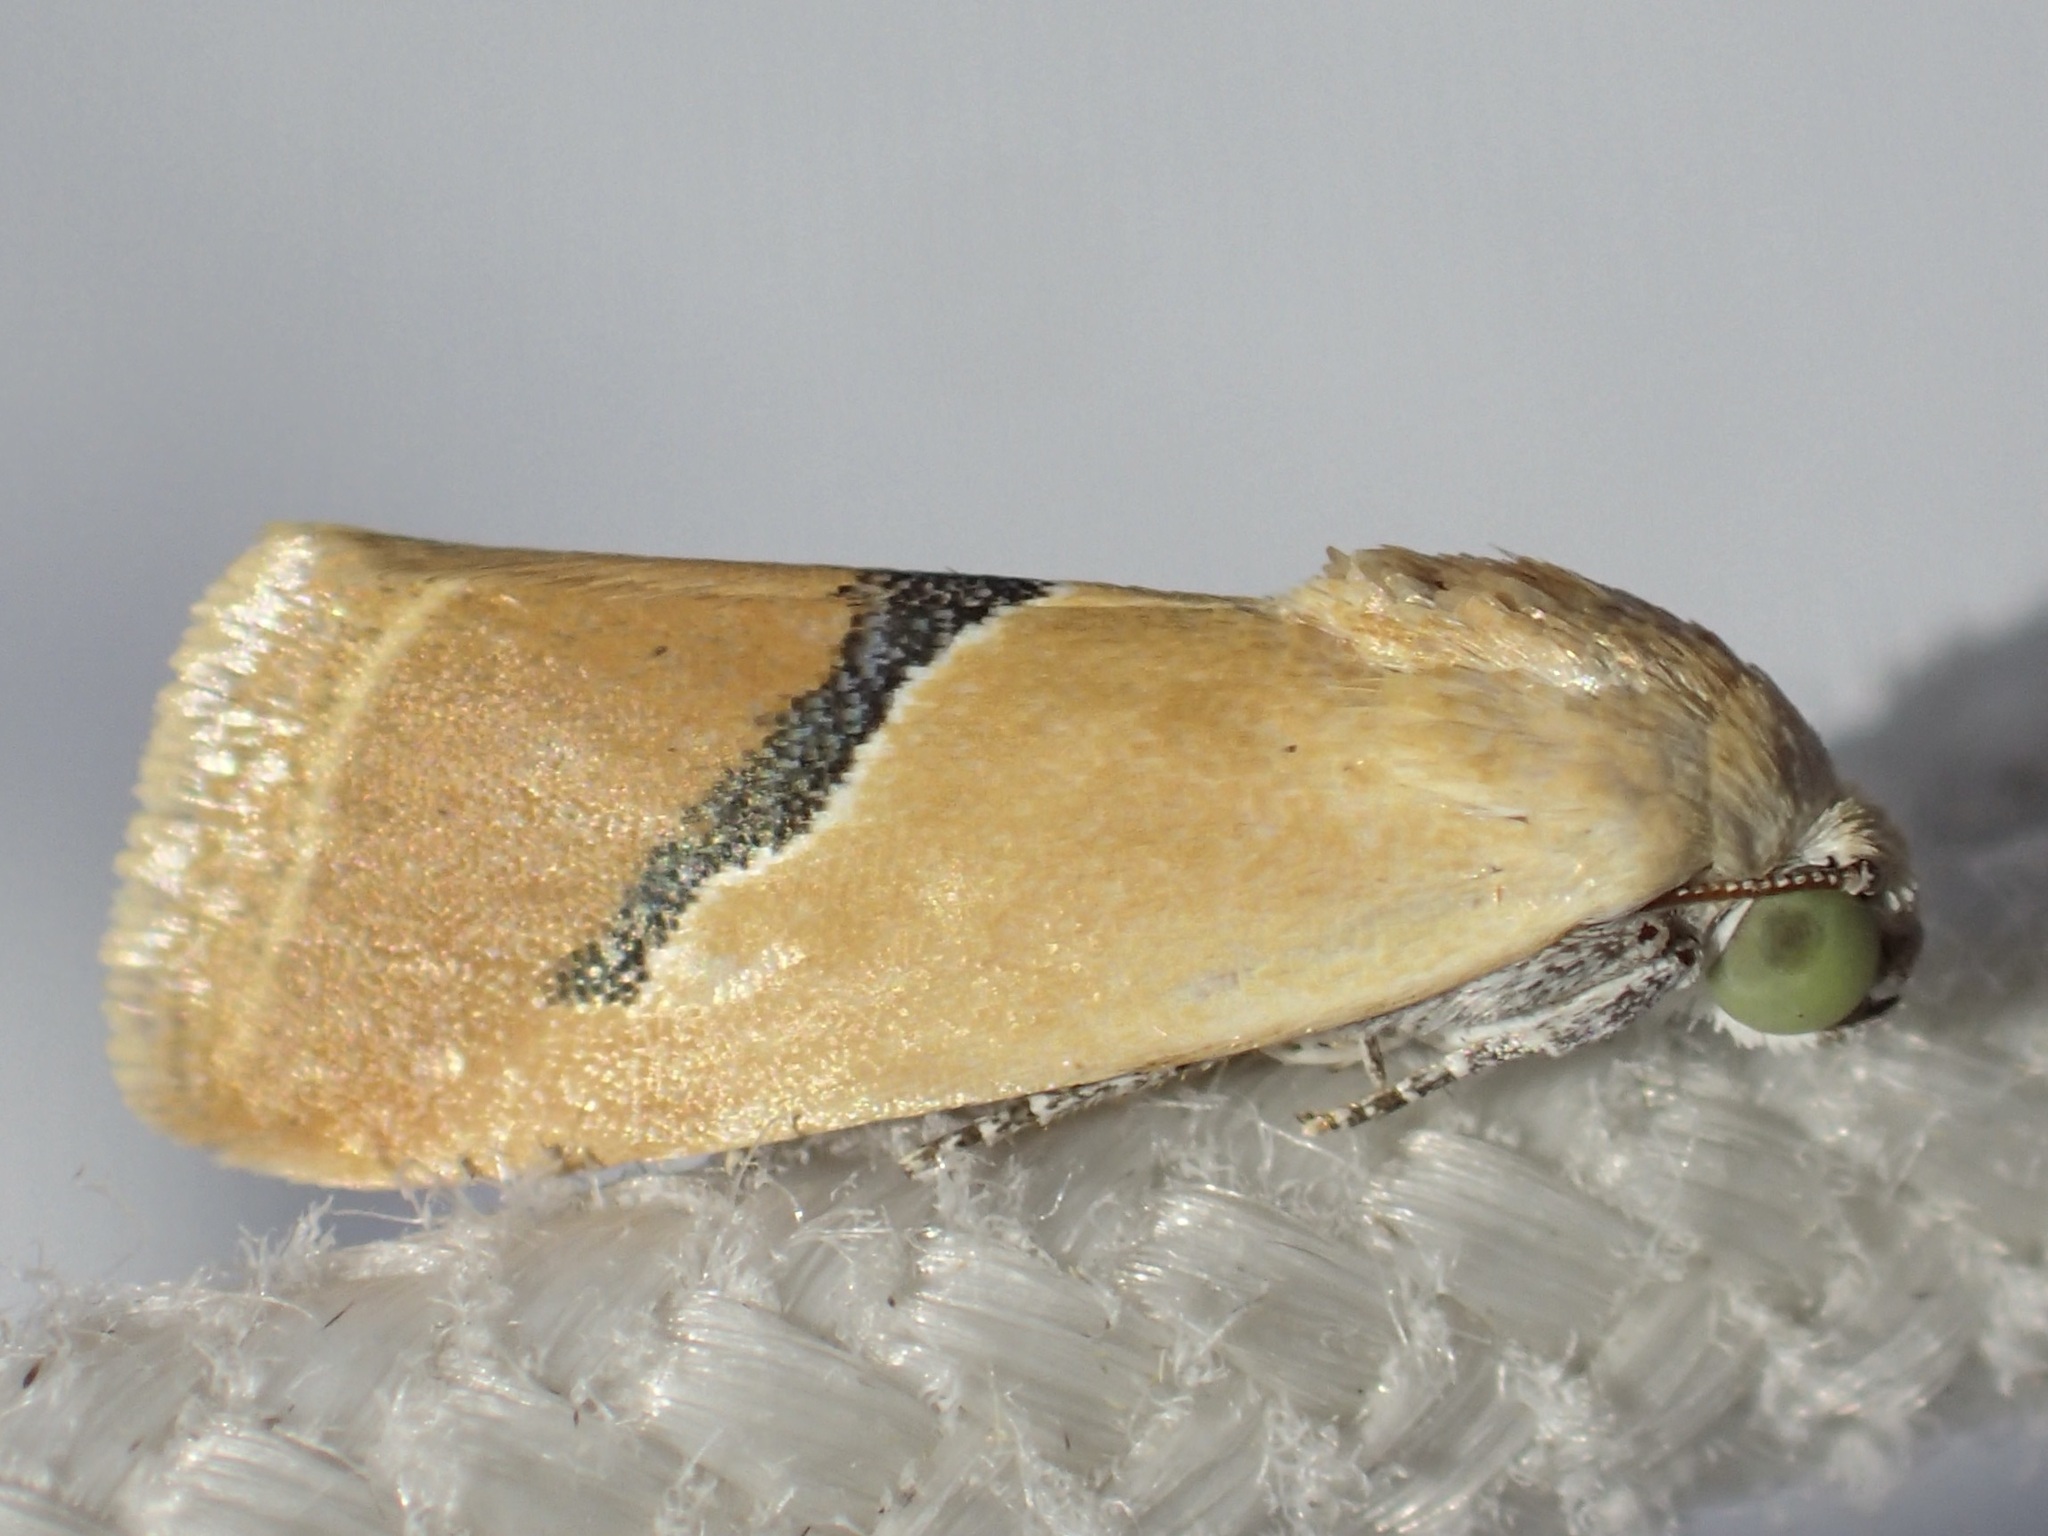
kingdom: Animalia
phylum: Arthropoda
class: Insecta
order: Lepidoptera
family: Noctuidae
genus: Ponometia
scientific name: Ponometia venustula
